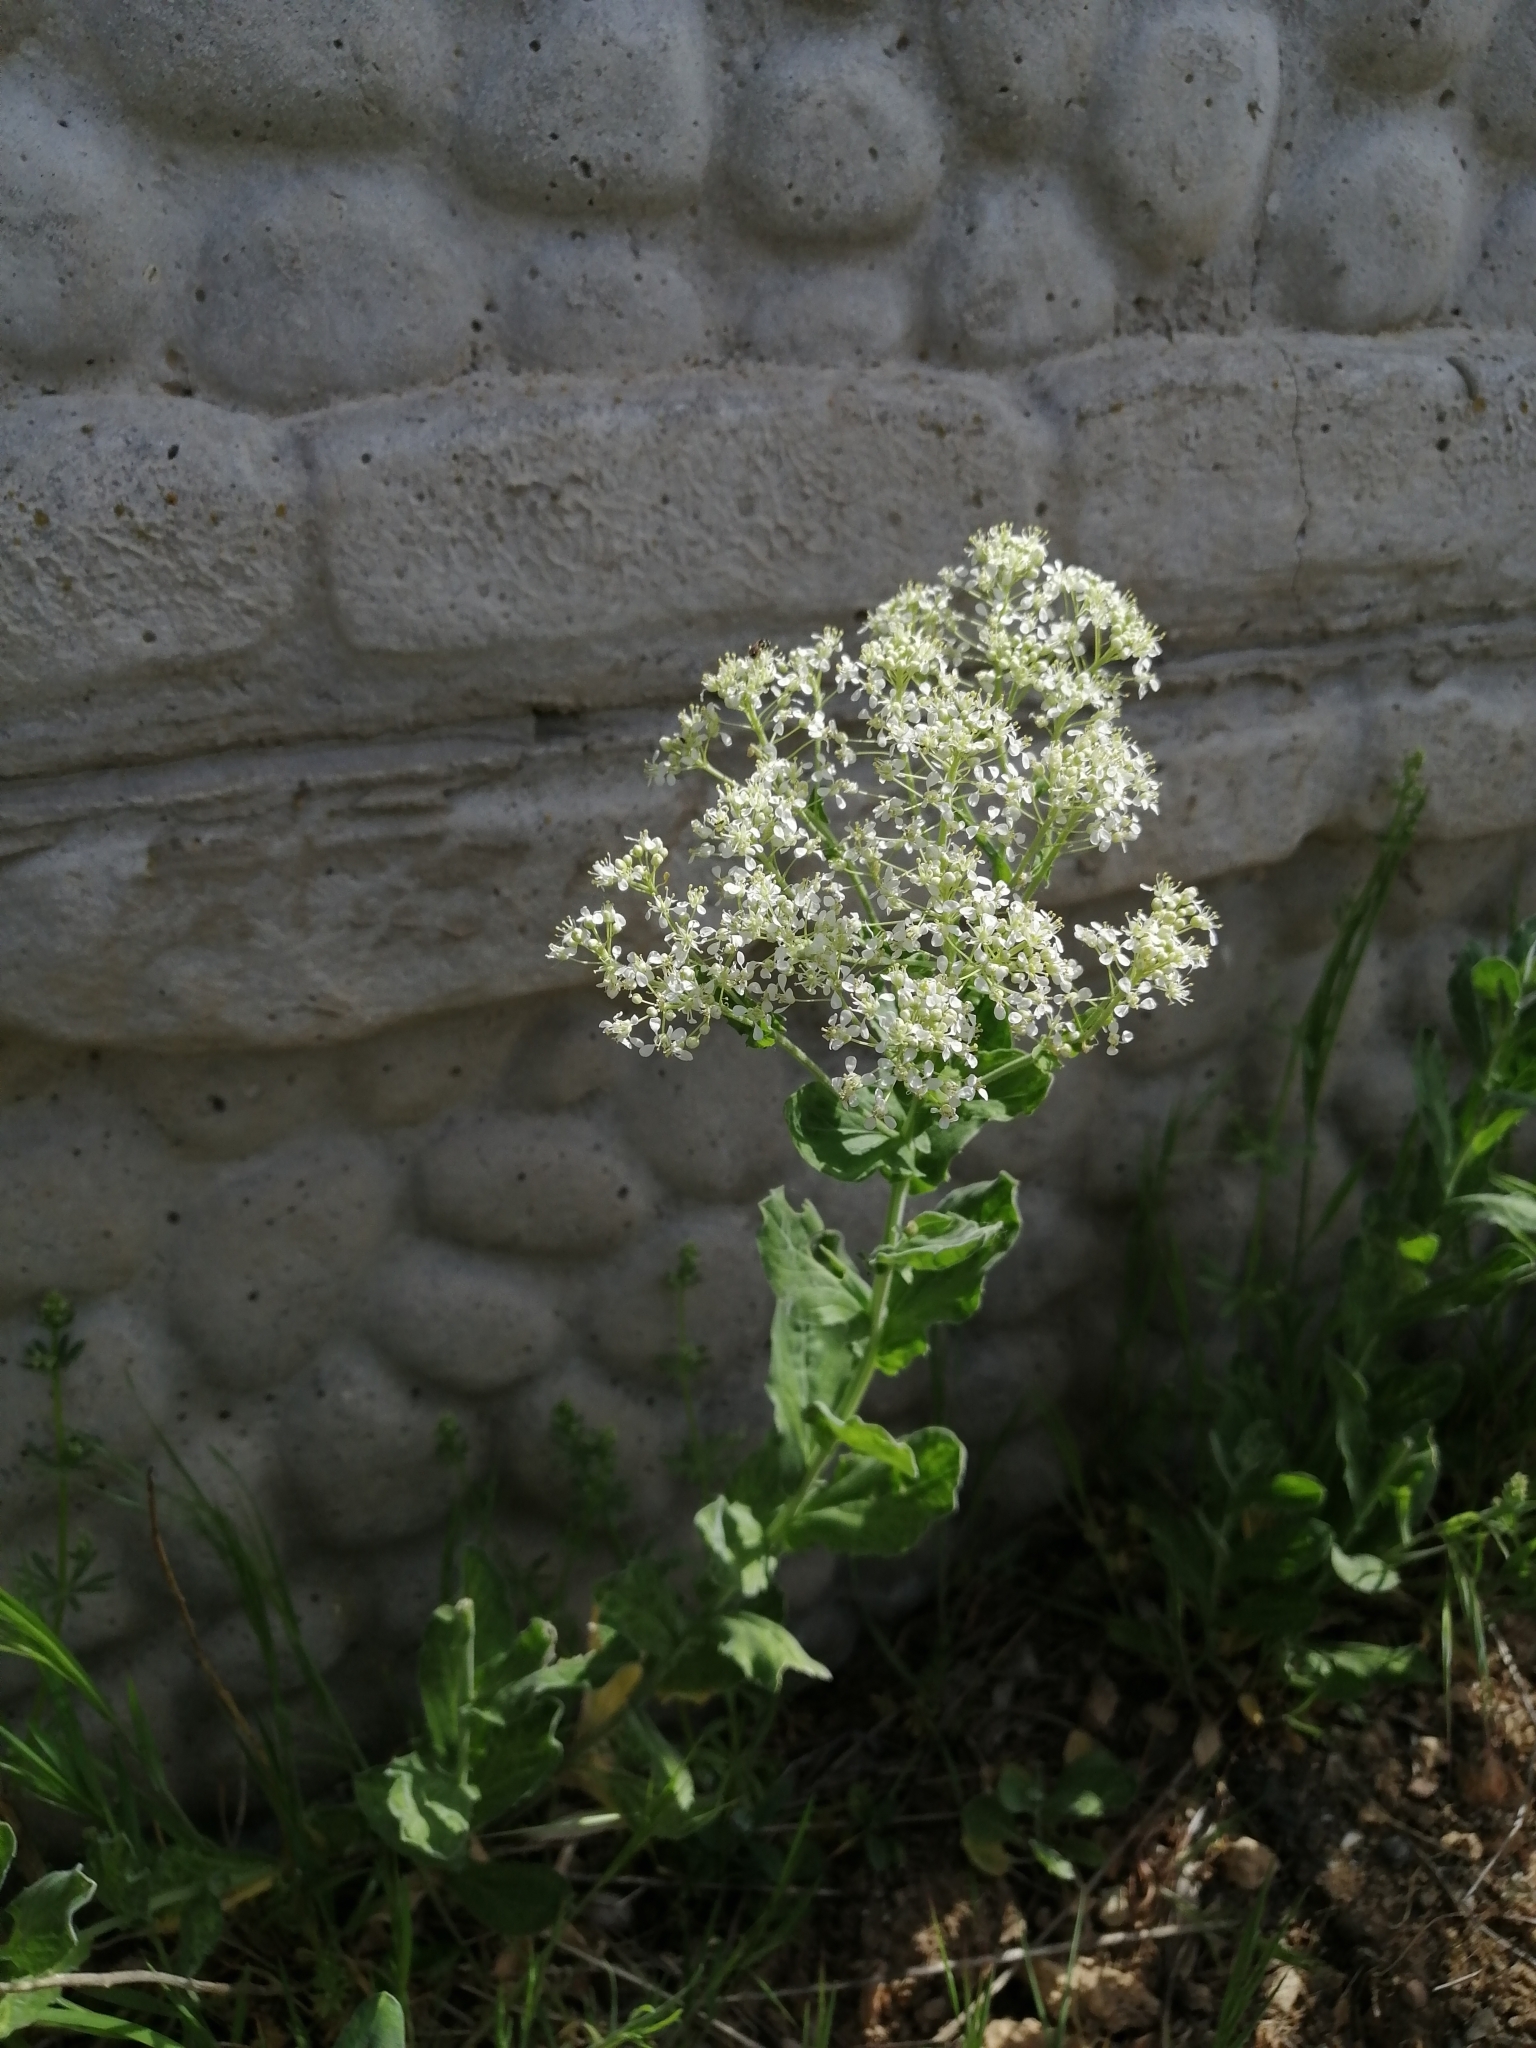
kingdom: Plantae
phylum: Tracheophyta
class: Magnoliopsida
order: Brassicales
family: Brassicaceae
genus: Lepidium
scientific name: Lepidium draba
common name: Hoary cress
